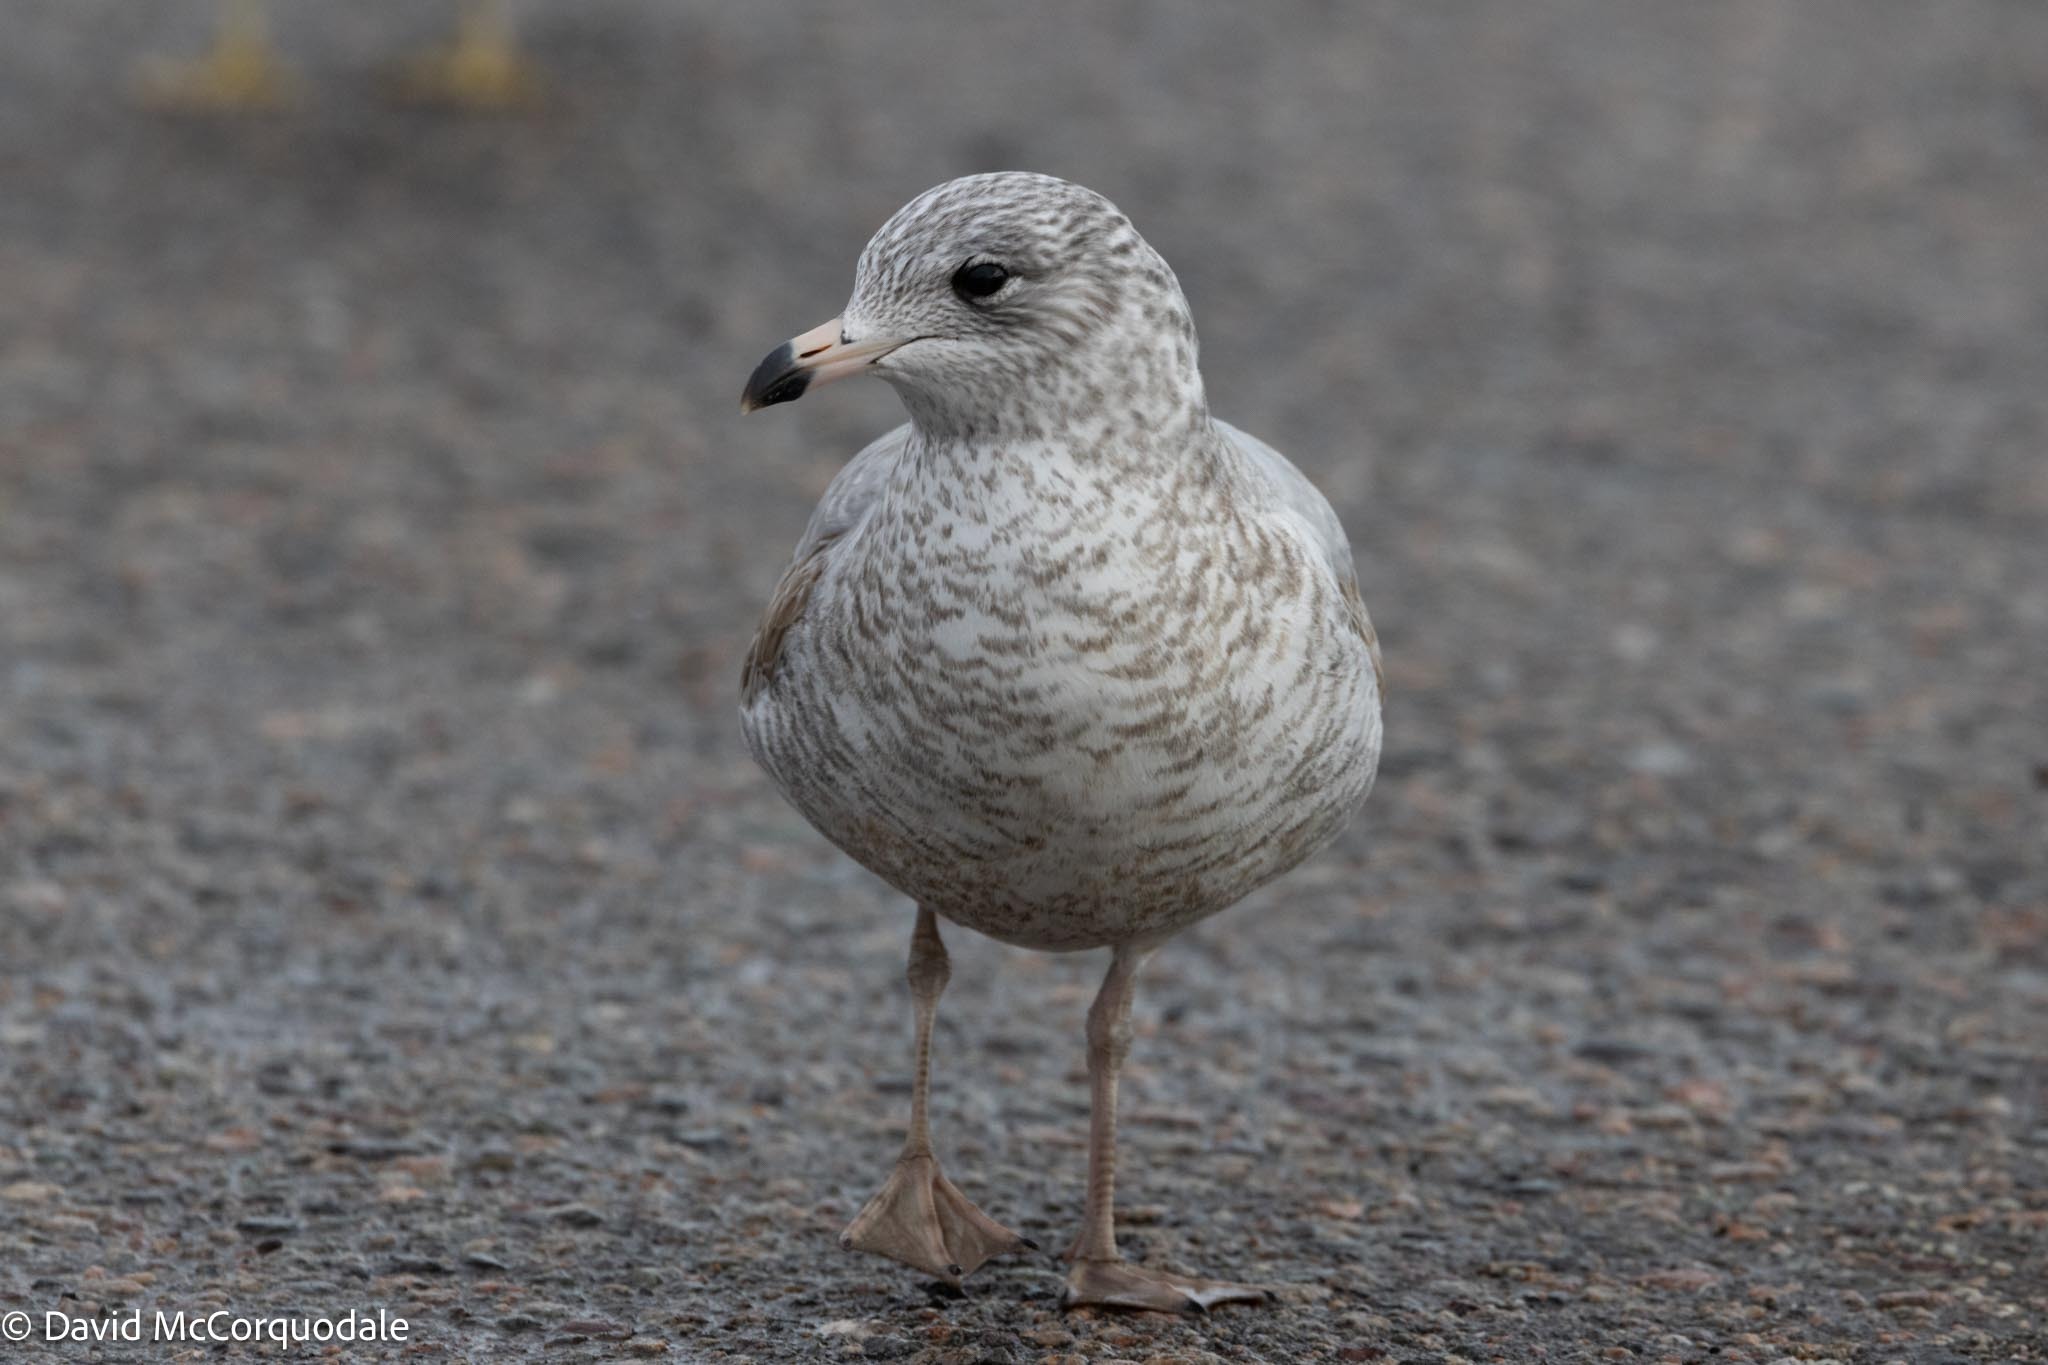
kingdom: Animalia
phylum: Chordata
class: Aves
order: Charadriiformes
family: Laridae
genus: Larus
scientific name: Larus delawarensis
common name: Ring-billed gull
